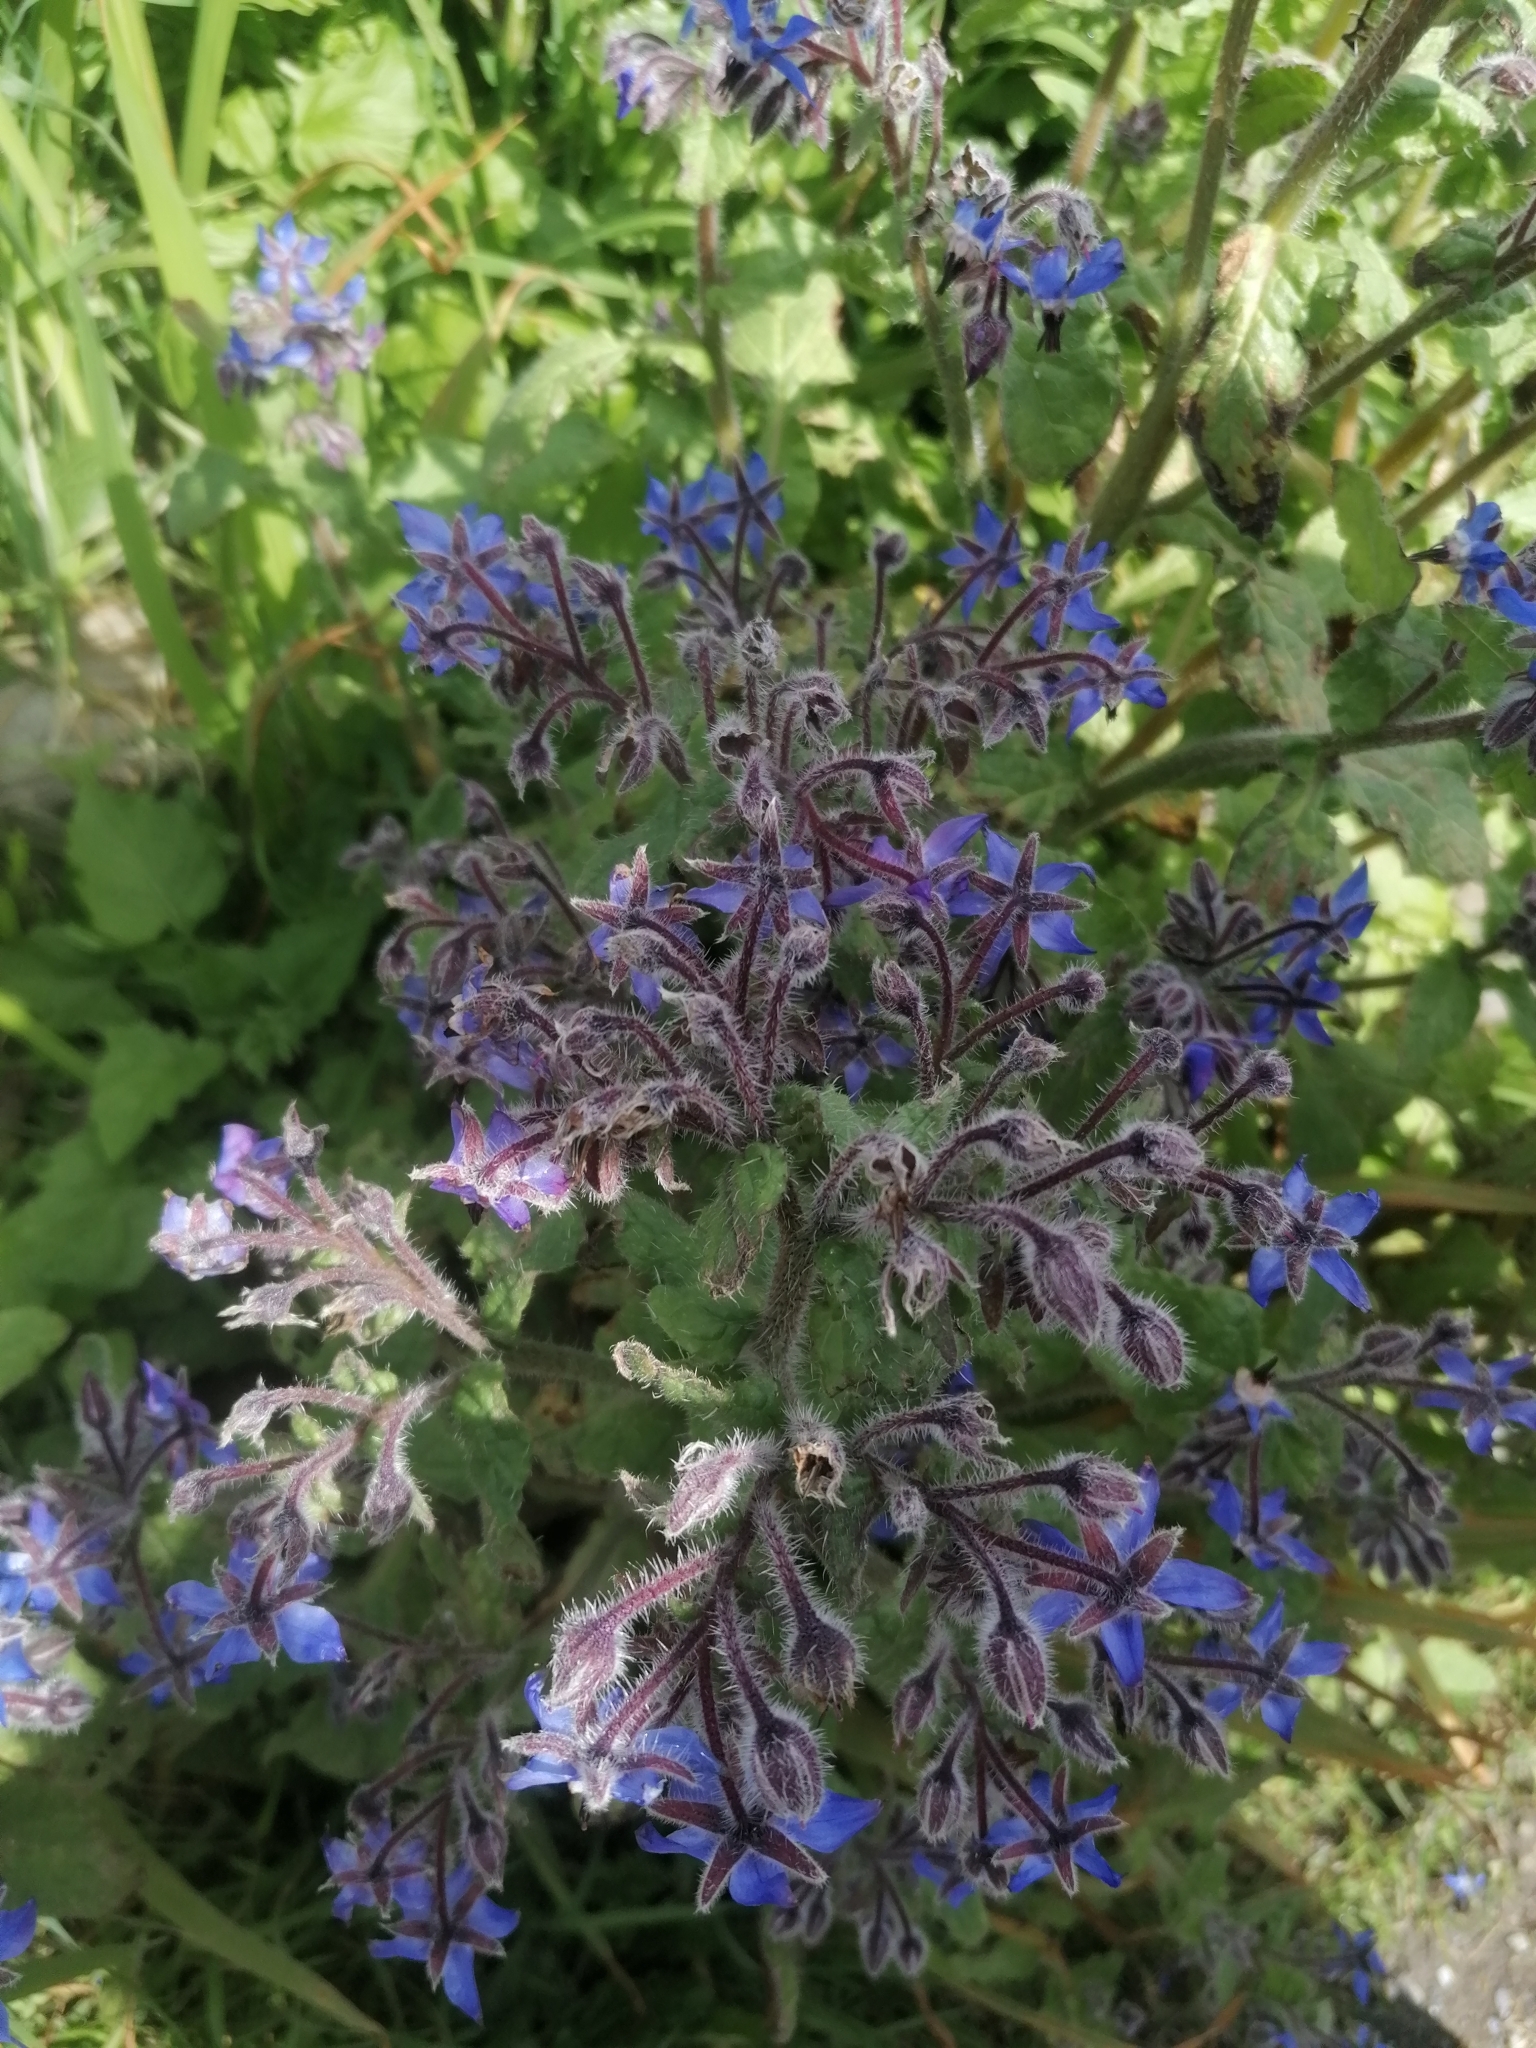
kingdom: Plantae
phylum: Tracheophyta
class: Magnoliopsida
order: Boraginales
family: Boraginaceae
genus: Borago
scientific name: Borago officinalis
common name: Borage
